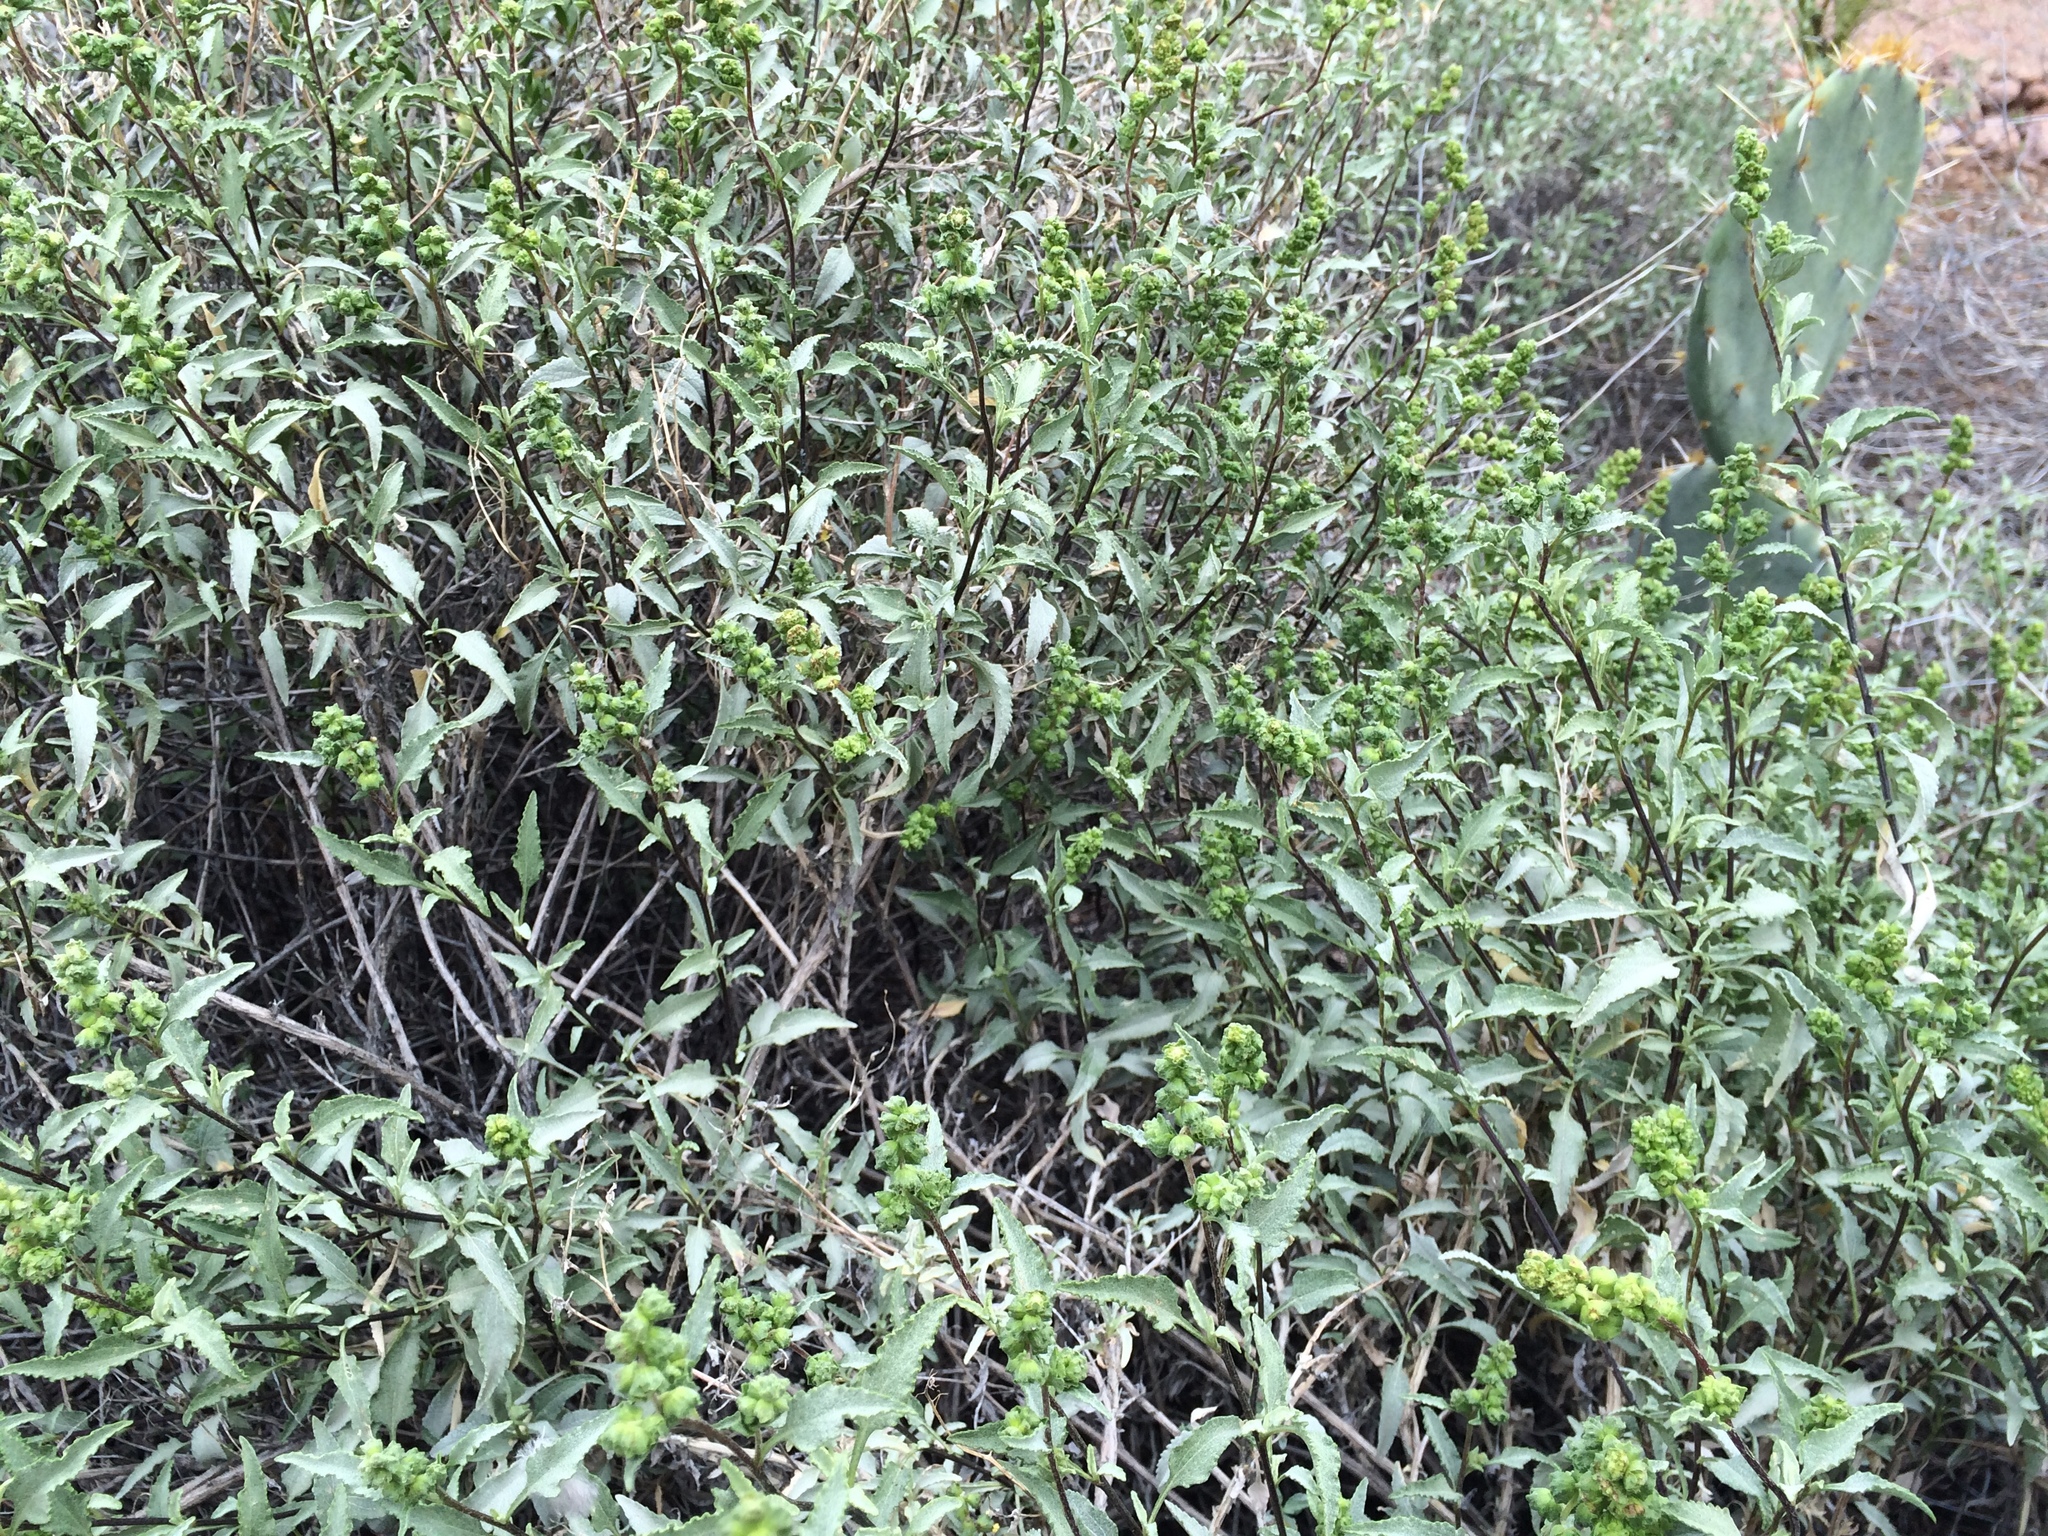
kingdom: Plantae
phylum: Tracheophyta
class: Magnoliopsida
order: Asterales
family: Asteraceae
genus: Ambrosia
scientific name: Ambrosia deltoidea
